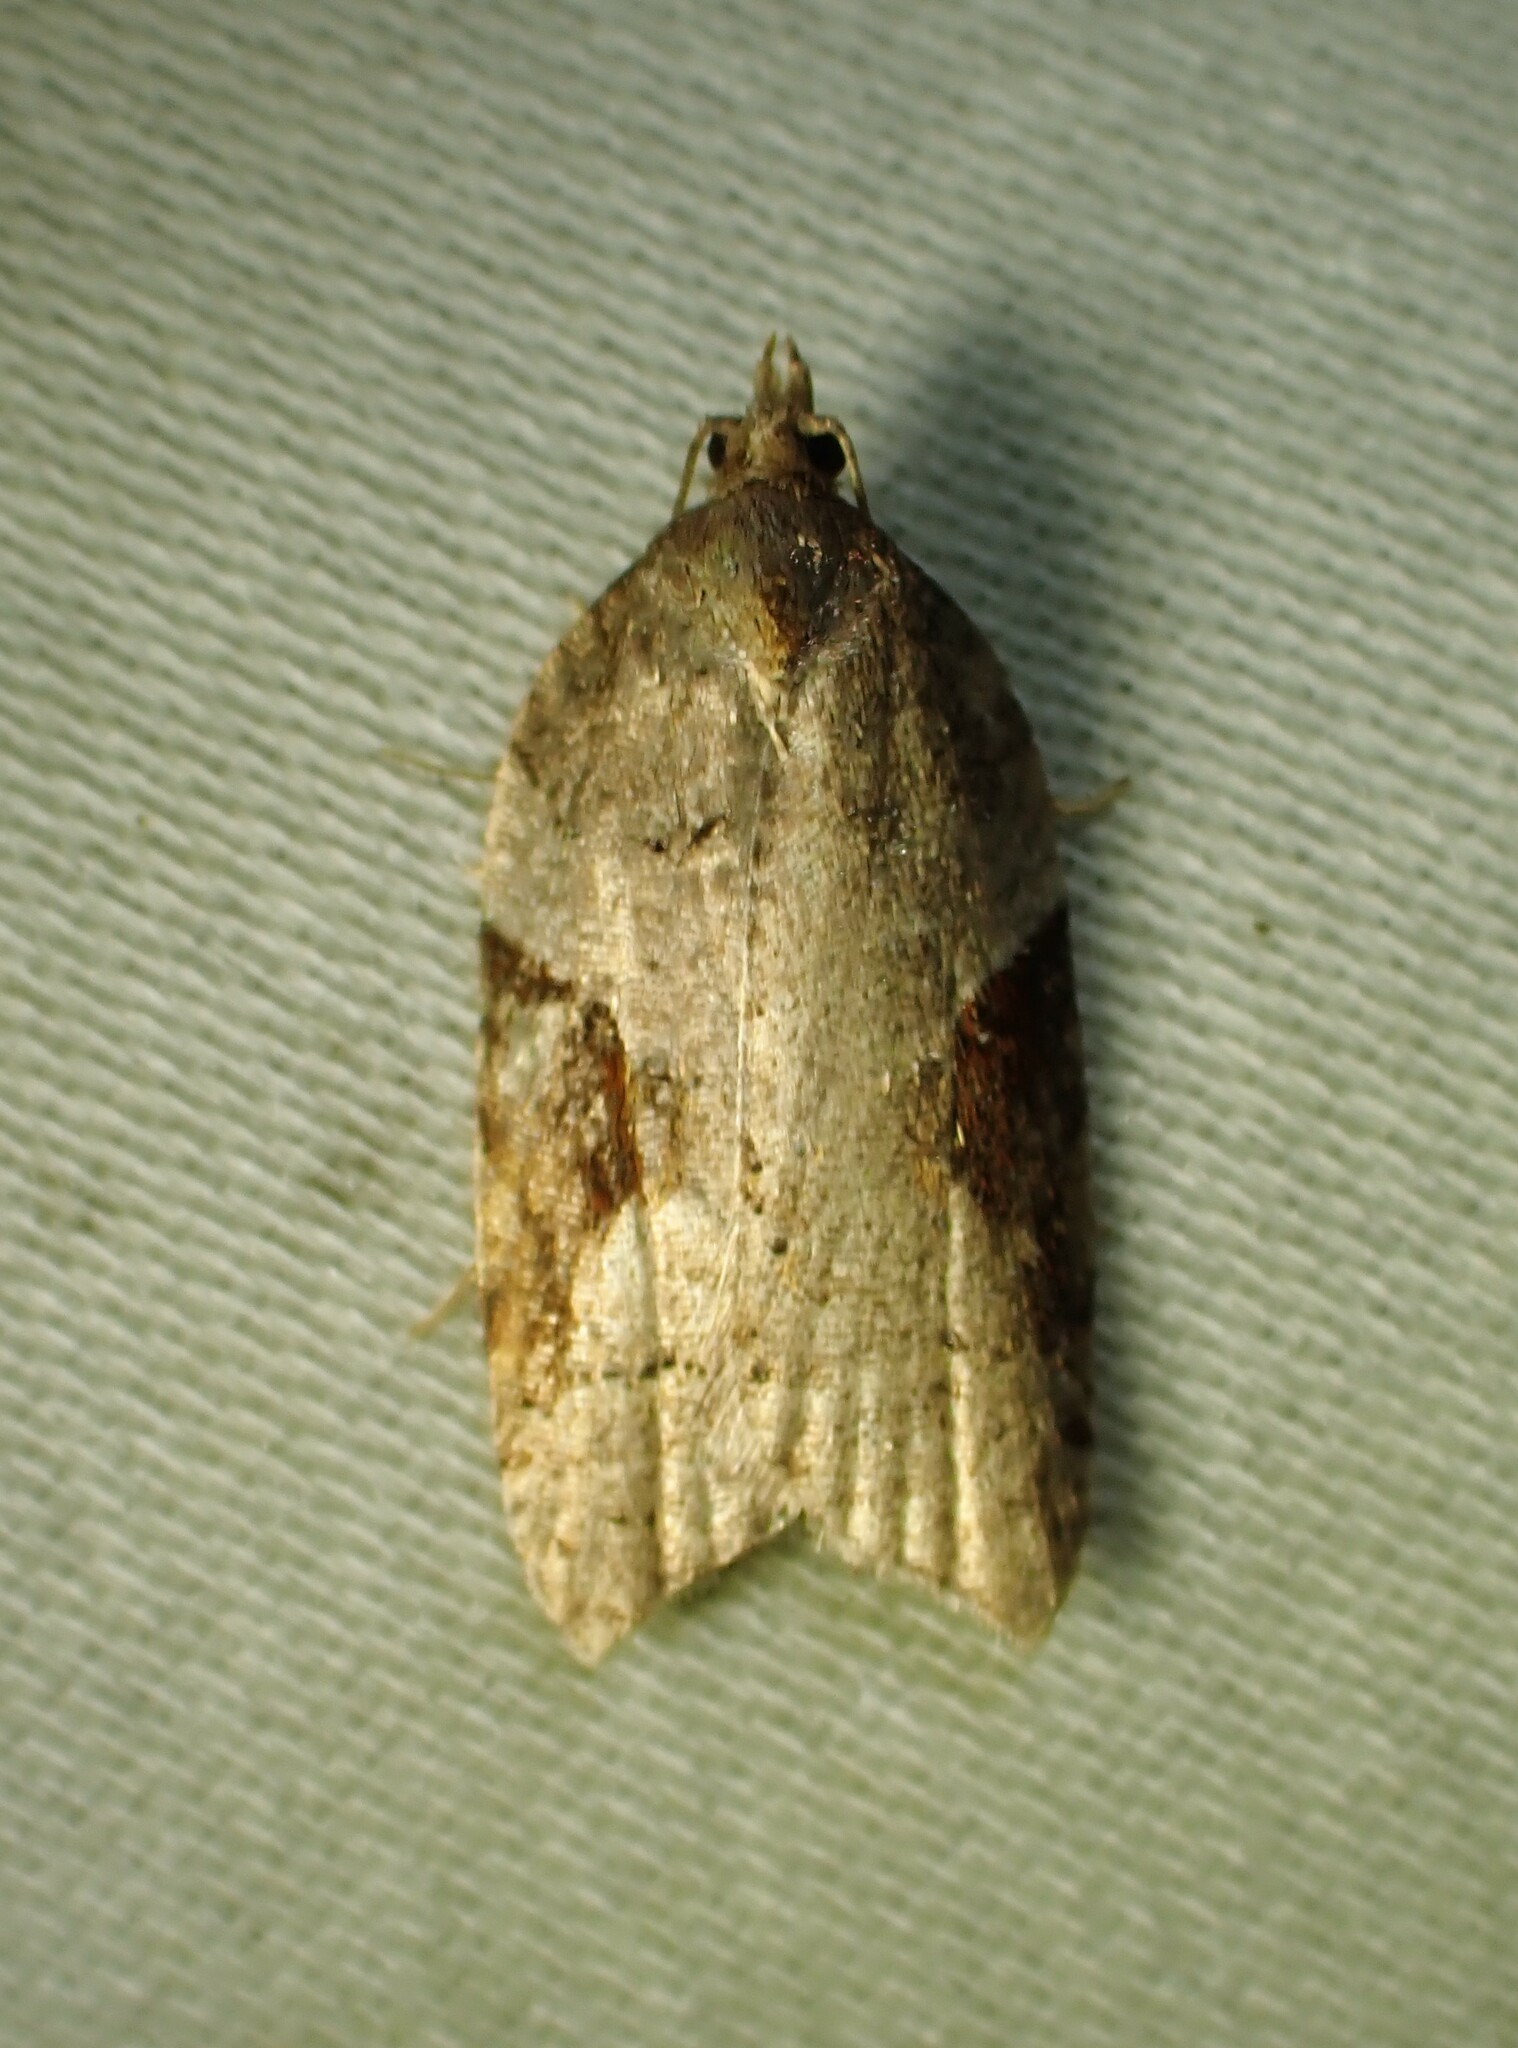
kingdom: Animalia
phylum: Arthropoda
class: Insecta
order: Lepidoptera
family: Tortricidae
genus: Acleris
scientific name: Acleris macdunnoughi
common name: Macdunnough's acleris
